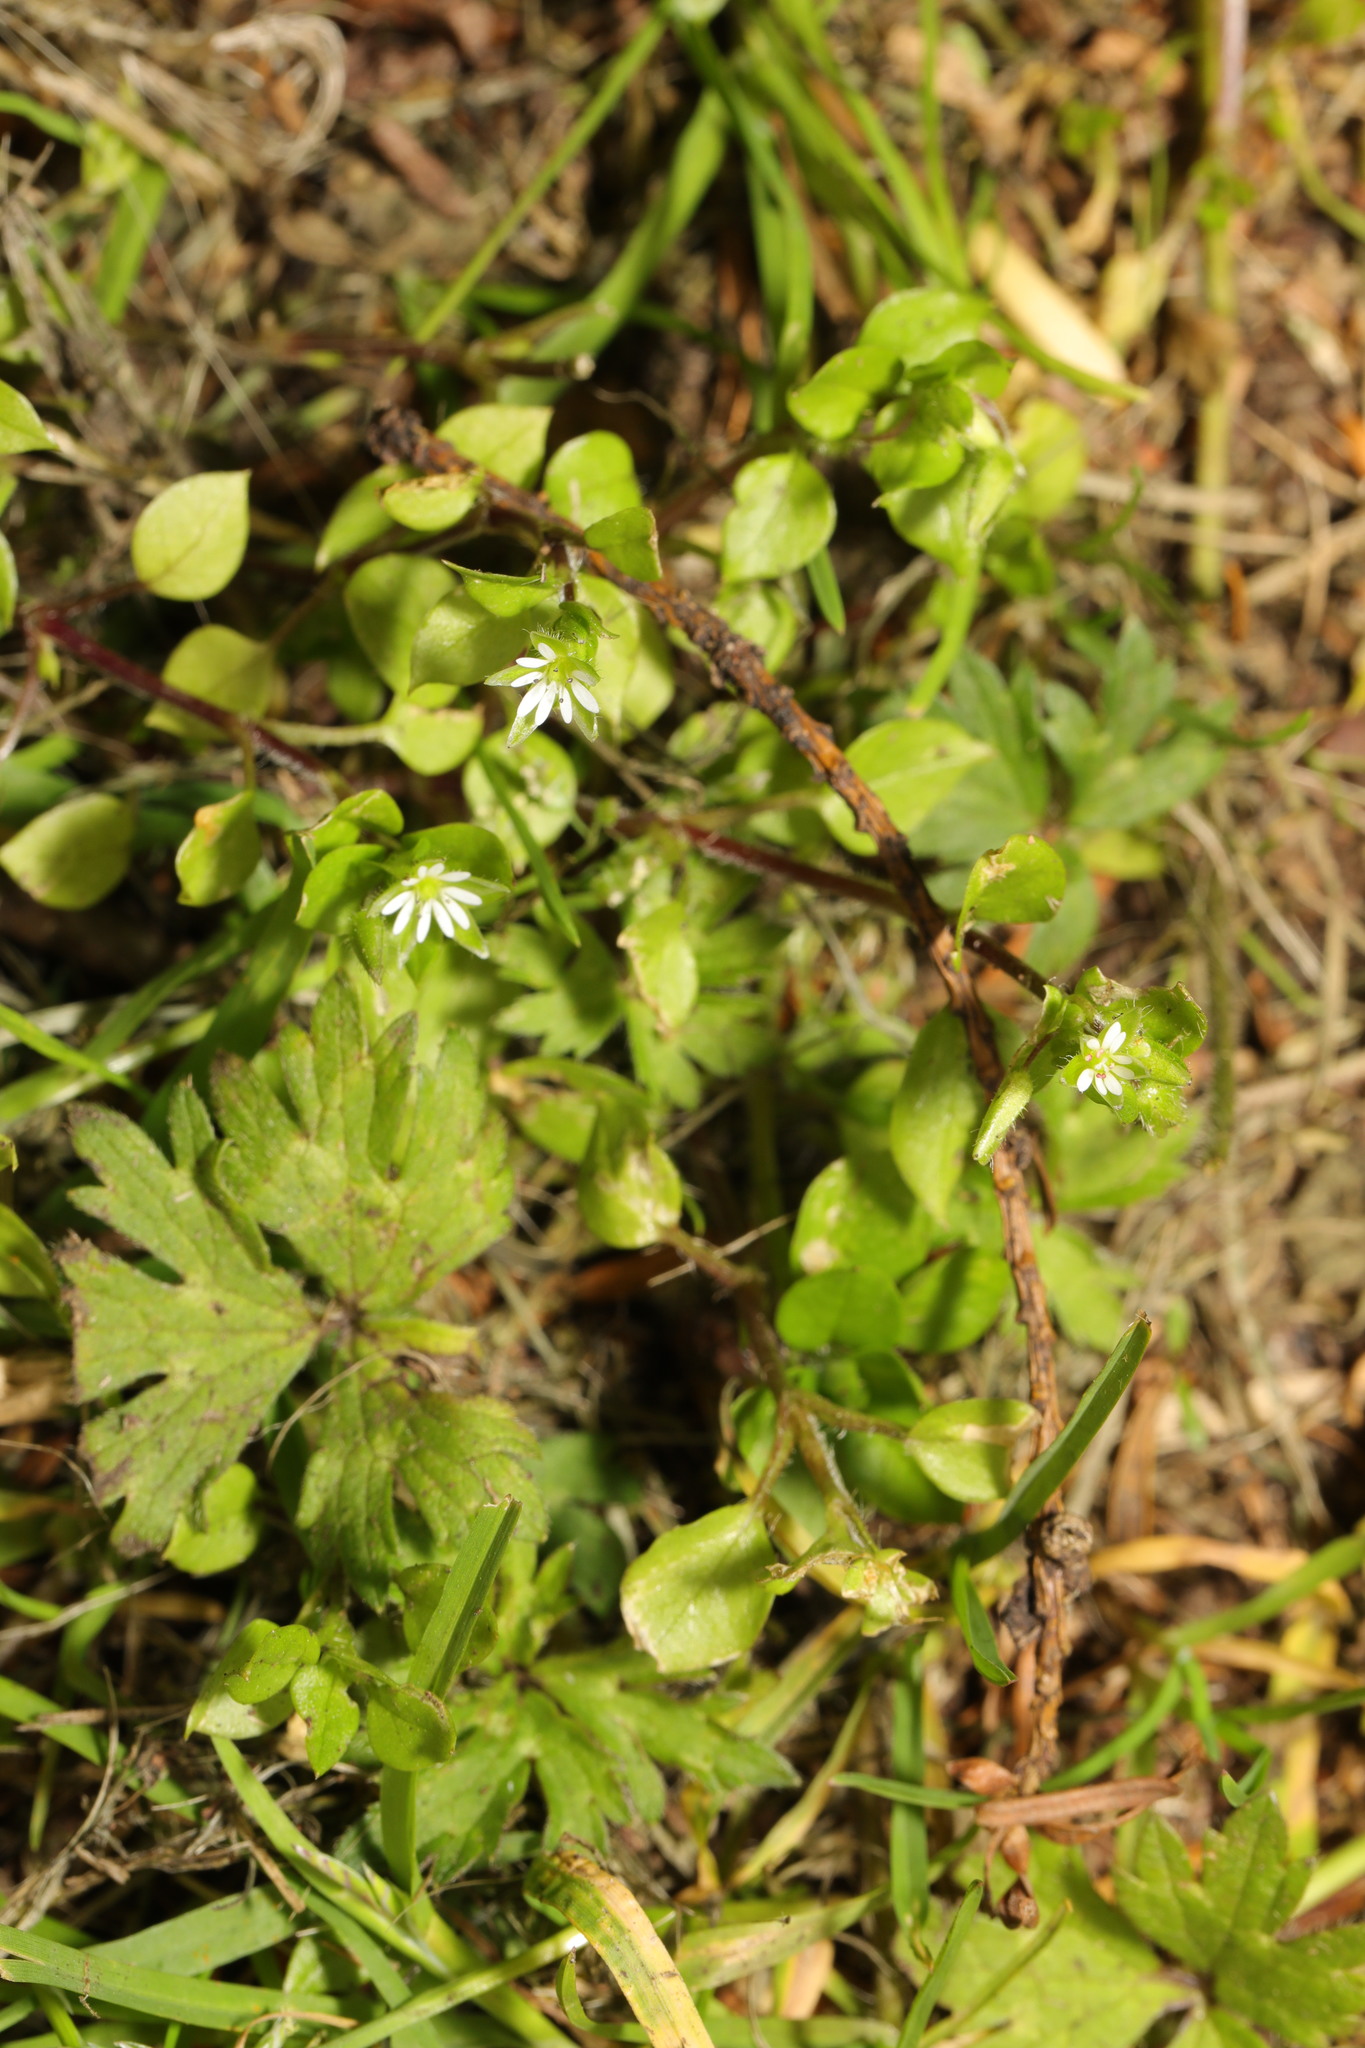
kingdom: Plantae
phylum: Tracheophyta
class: Magnoliopsida
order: Caryophyllales
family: Caryophyllaceae
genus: Stellaria
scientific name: Stellaria media
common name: Common chickweed
